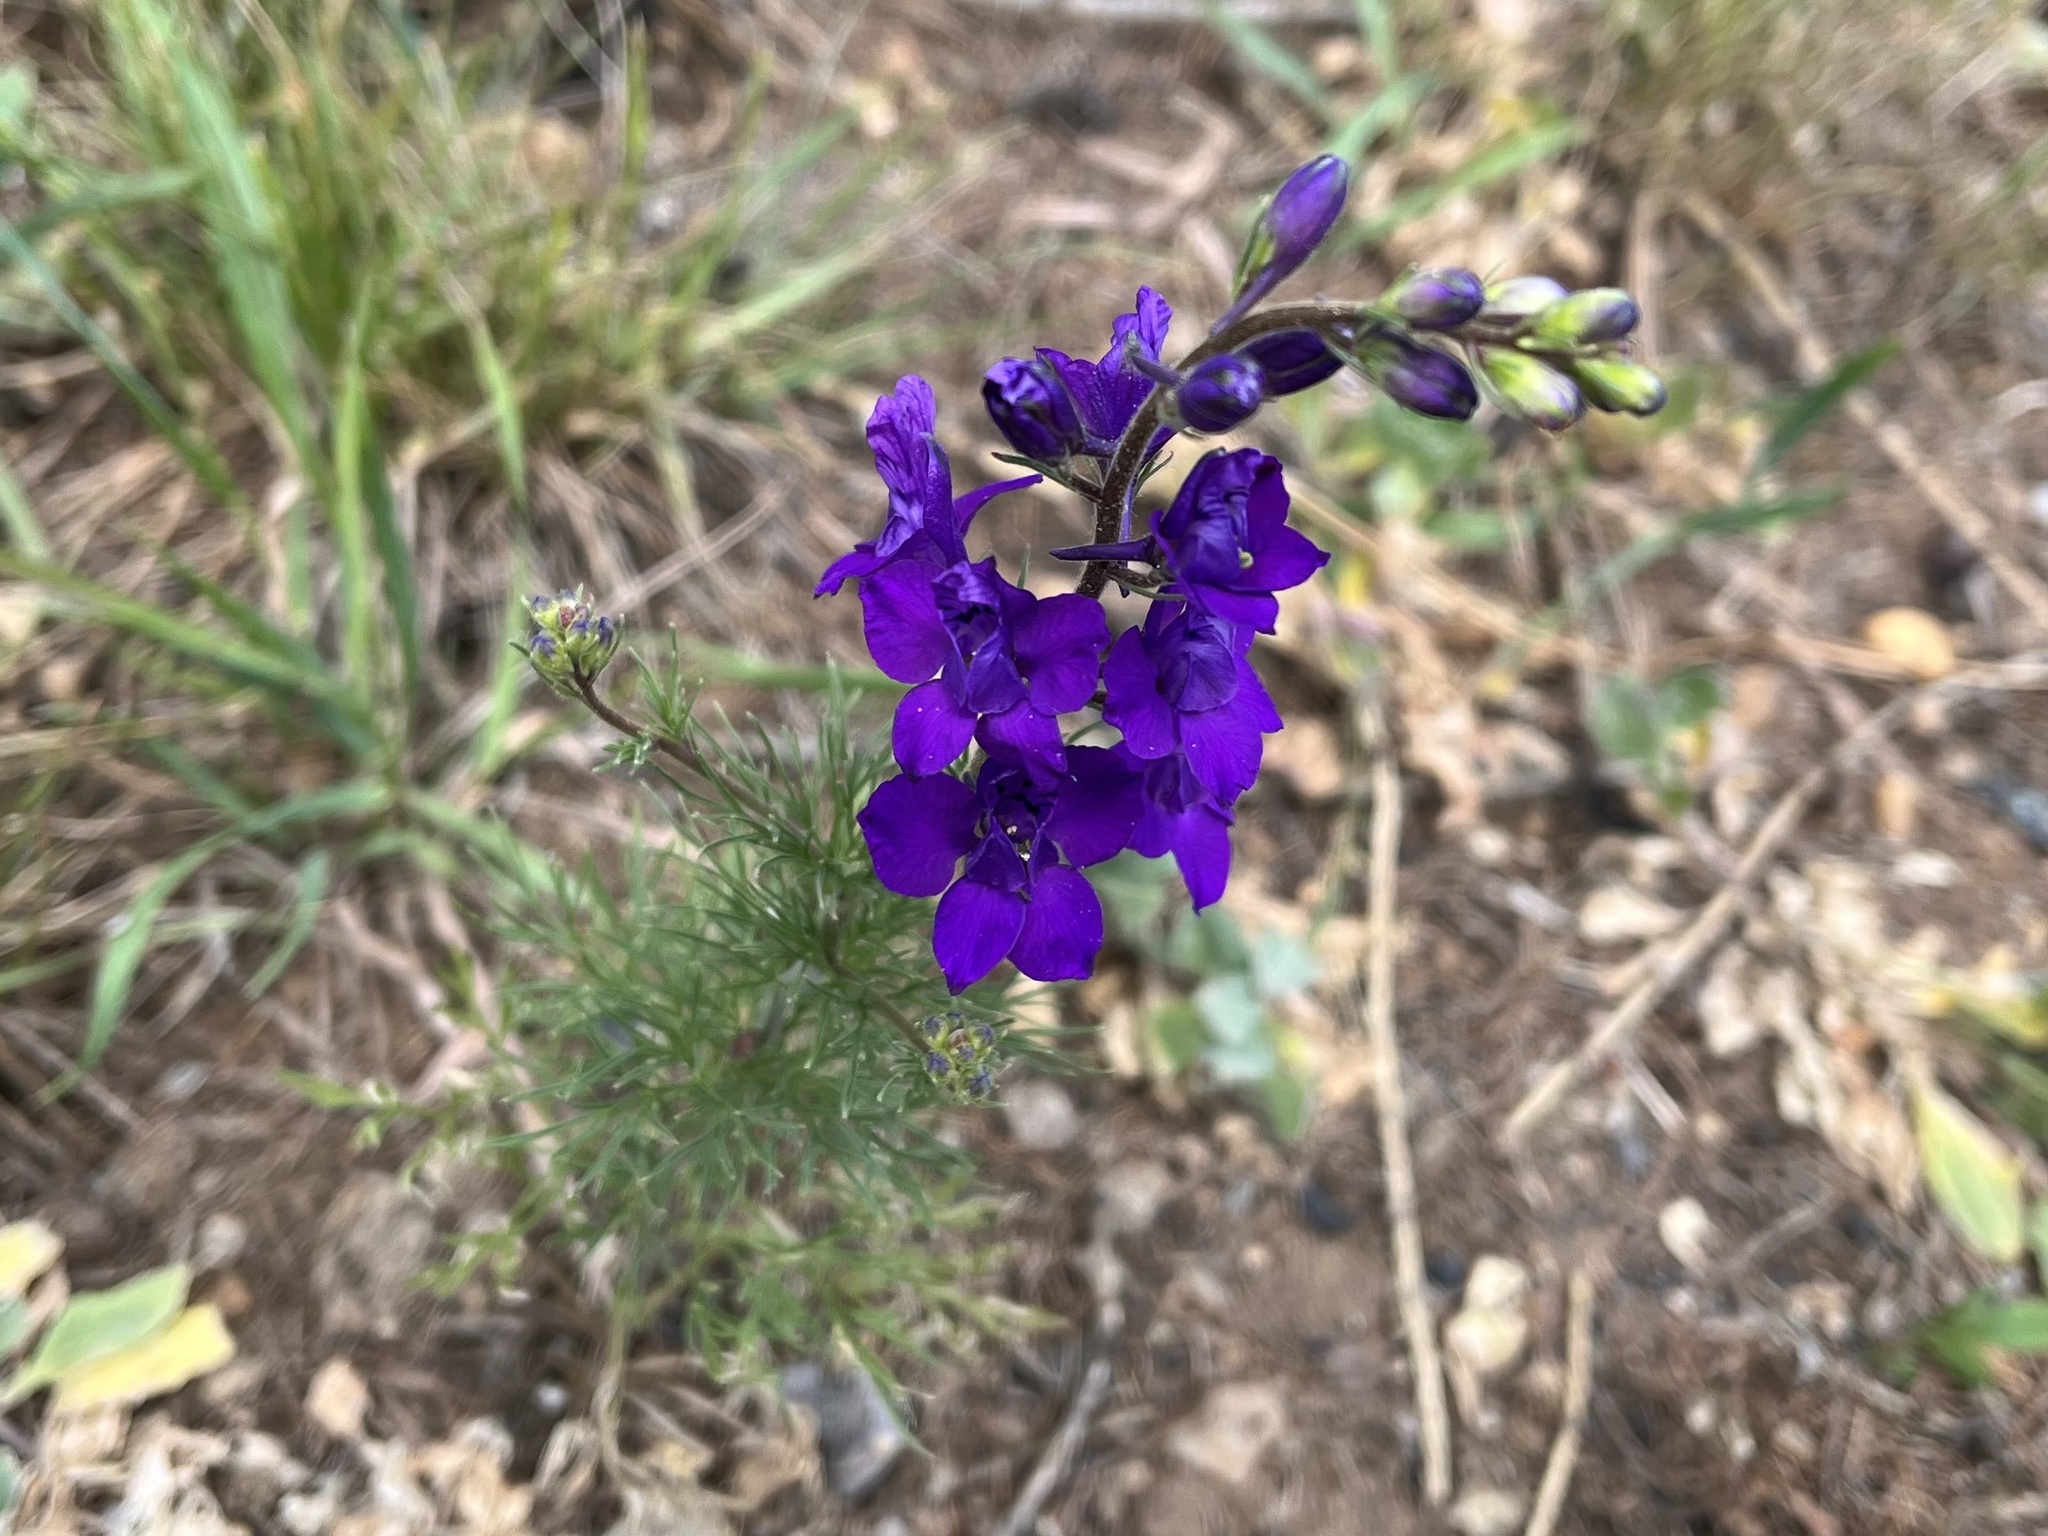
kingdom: Plantae
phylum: Tracheophyta
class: Magnoliopsida
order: Ranunculales
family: Ranunculaceae
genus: Delphinium
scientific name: Delphinium ajacis
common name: Doubtful knight's-spur
